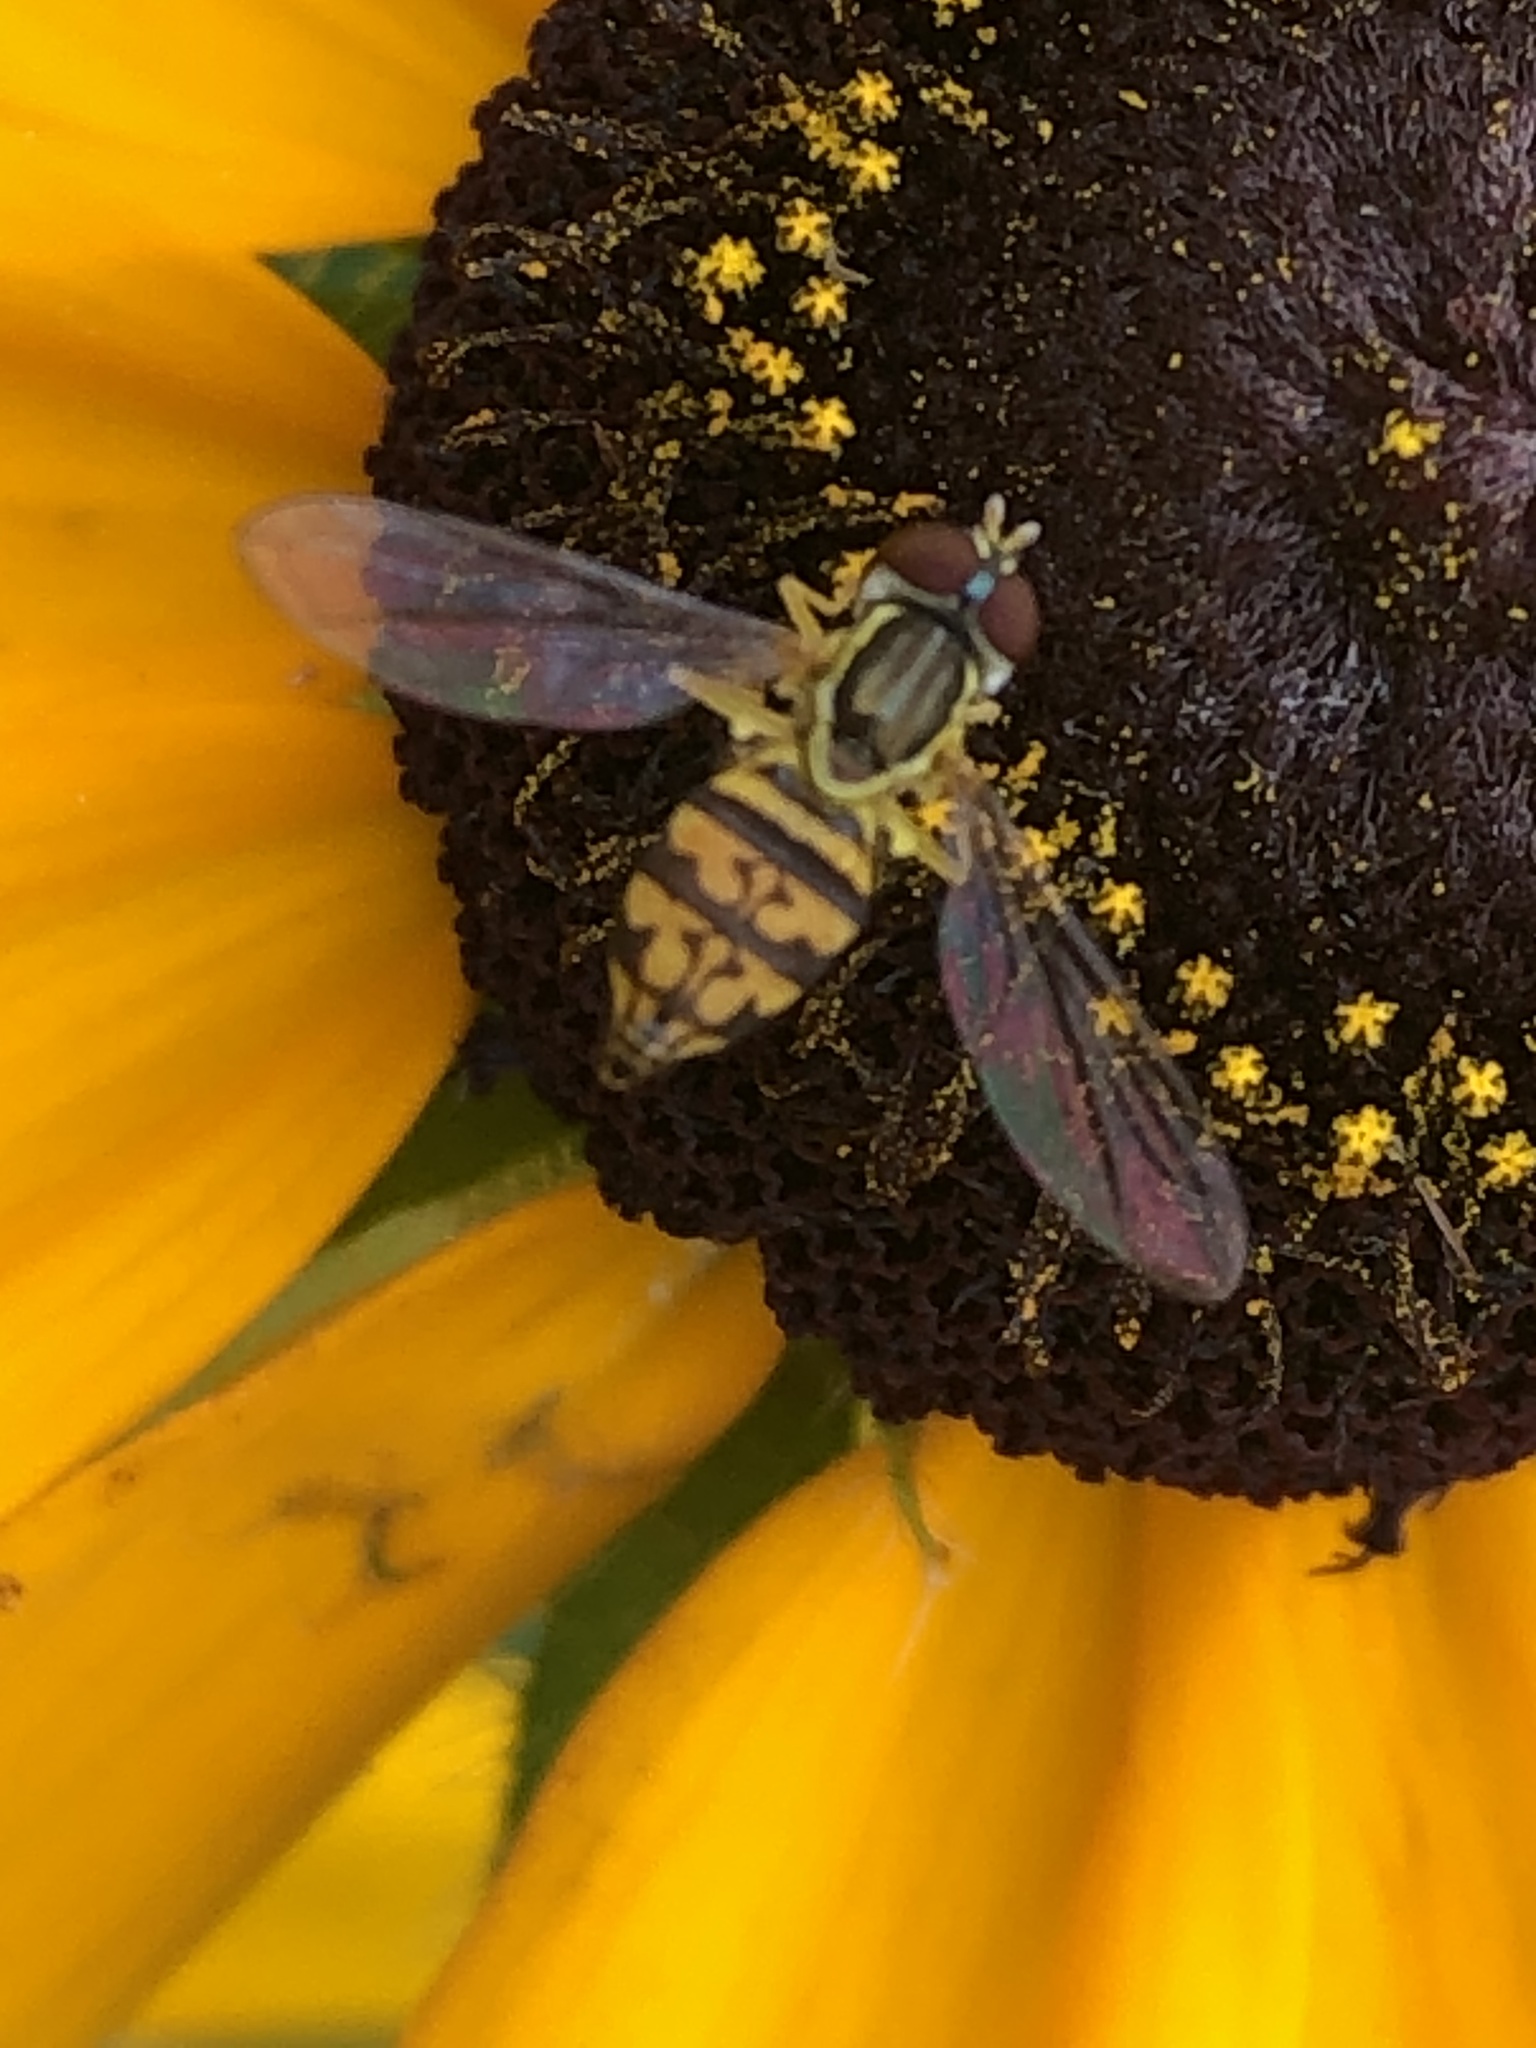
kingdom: Animalia
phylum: Arthropoda
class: Insecta
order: Diptera
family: Syrphidae
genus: Toxomerus
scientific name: Toxomerus geminatus
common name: Eastern calligrapher
